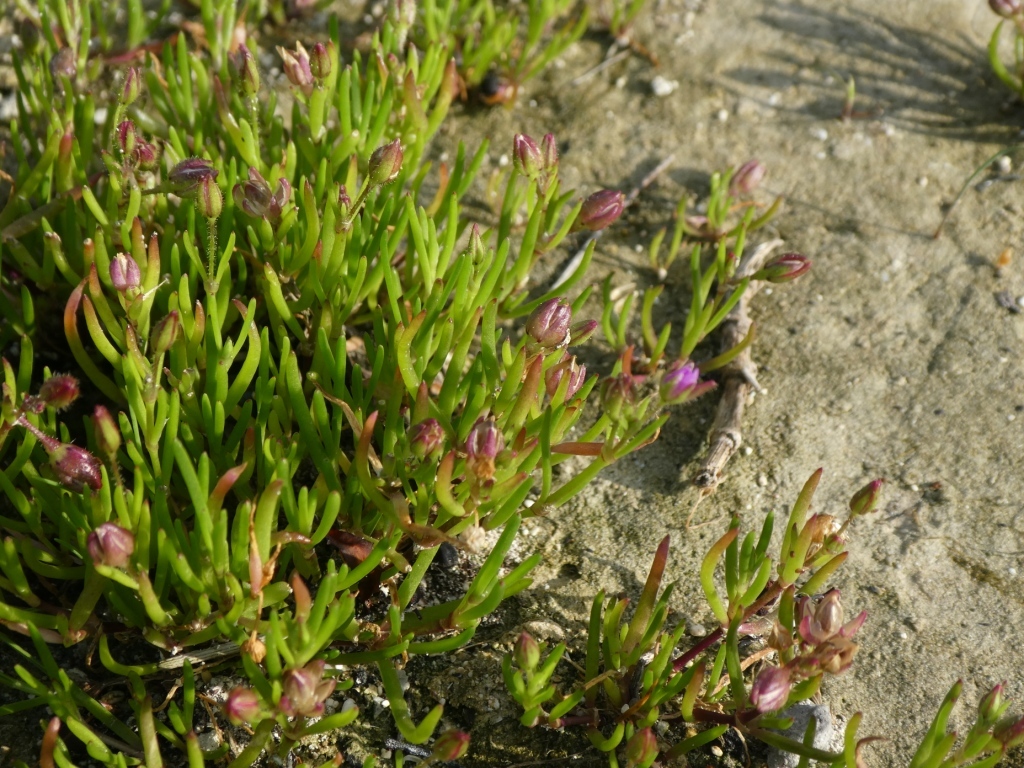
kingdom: Plantae
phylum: Tracheophyta
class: Magnoliopsida
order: Caryophyllales
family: Caryophyllaceae
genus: Spergularia
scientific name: Spergularia marina
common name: Lesser sea-spurrey
